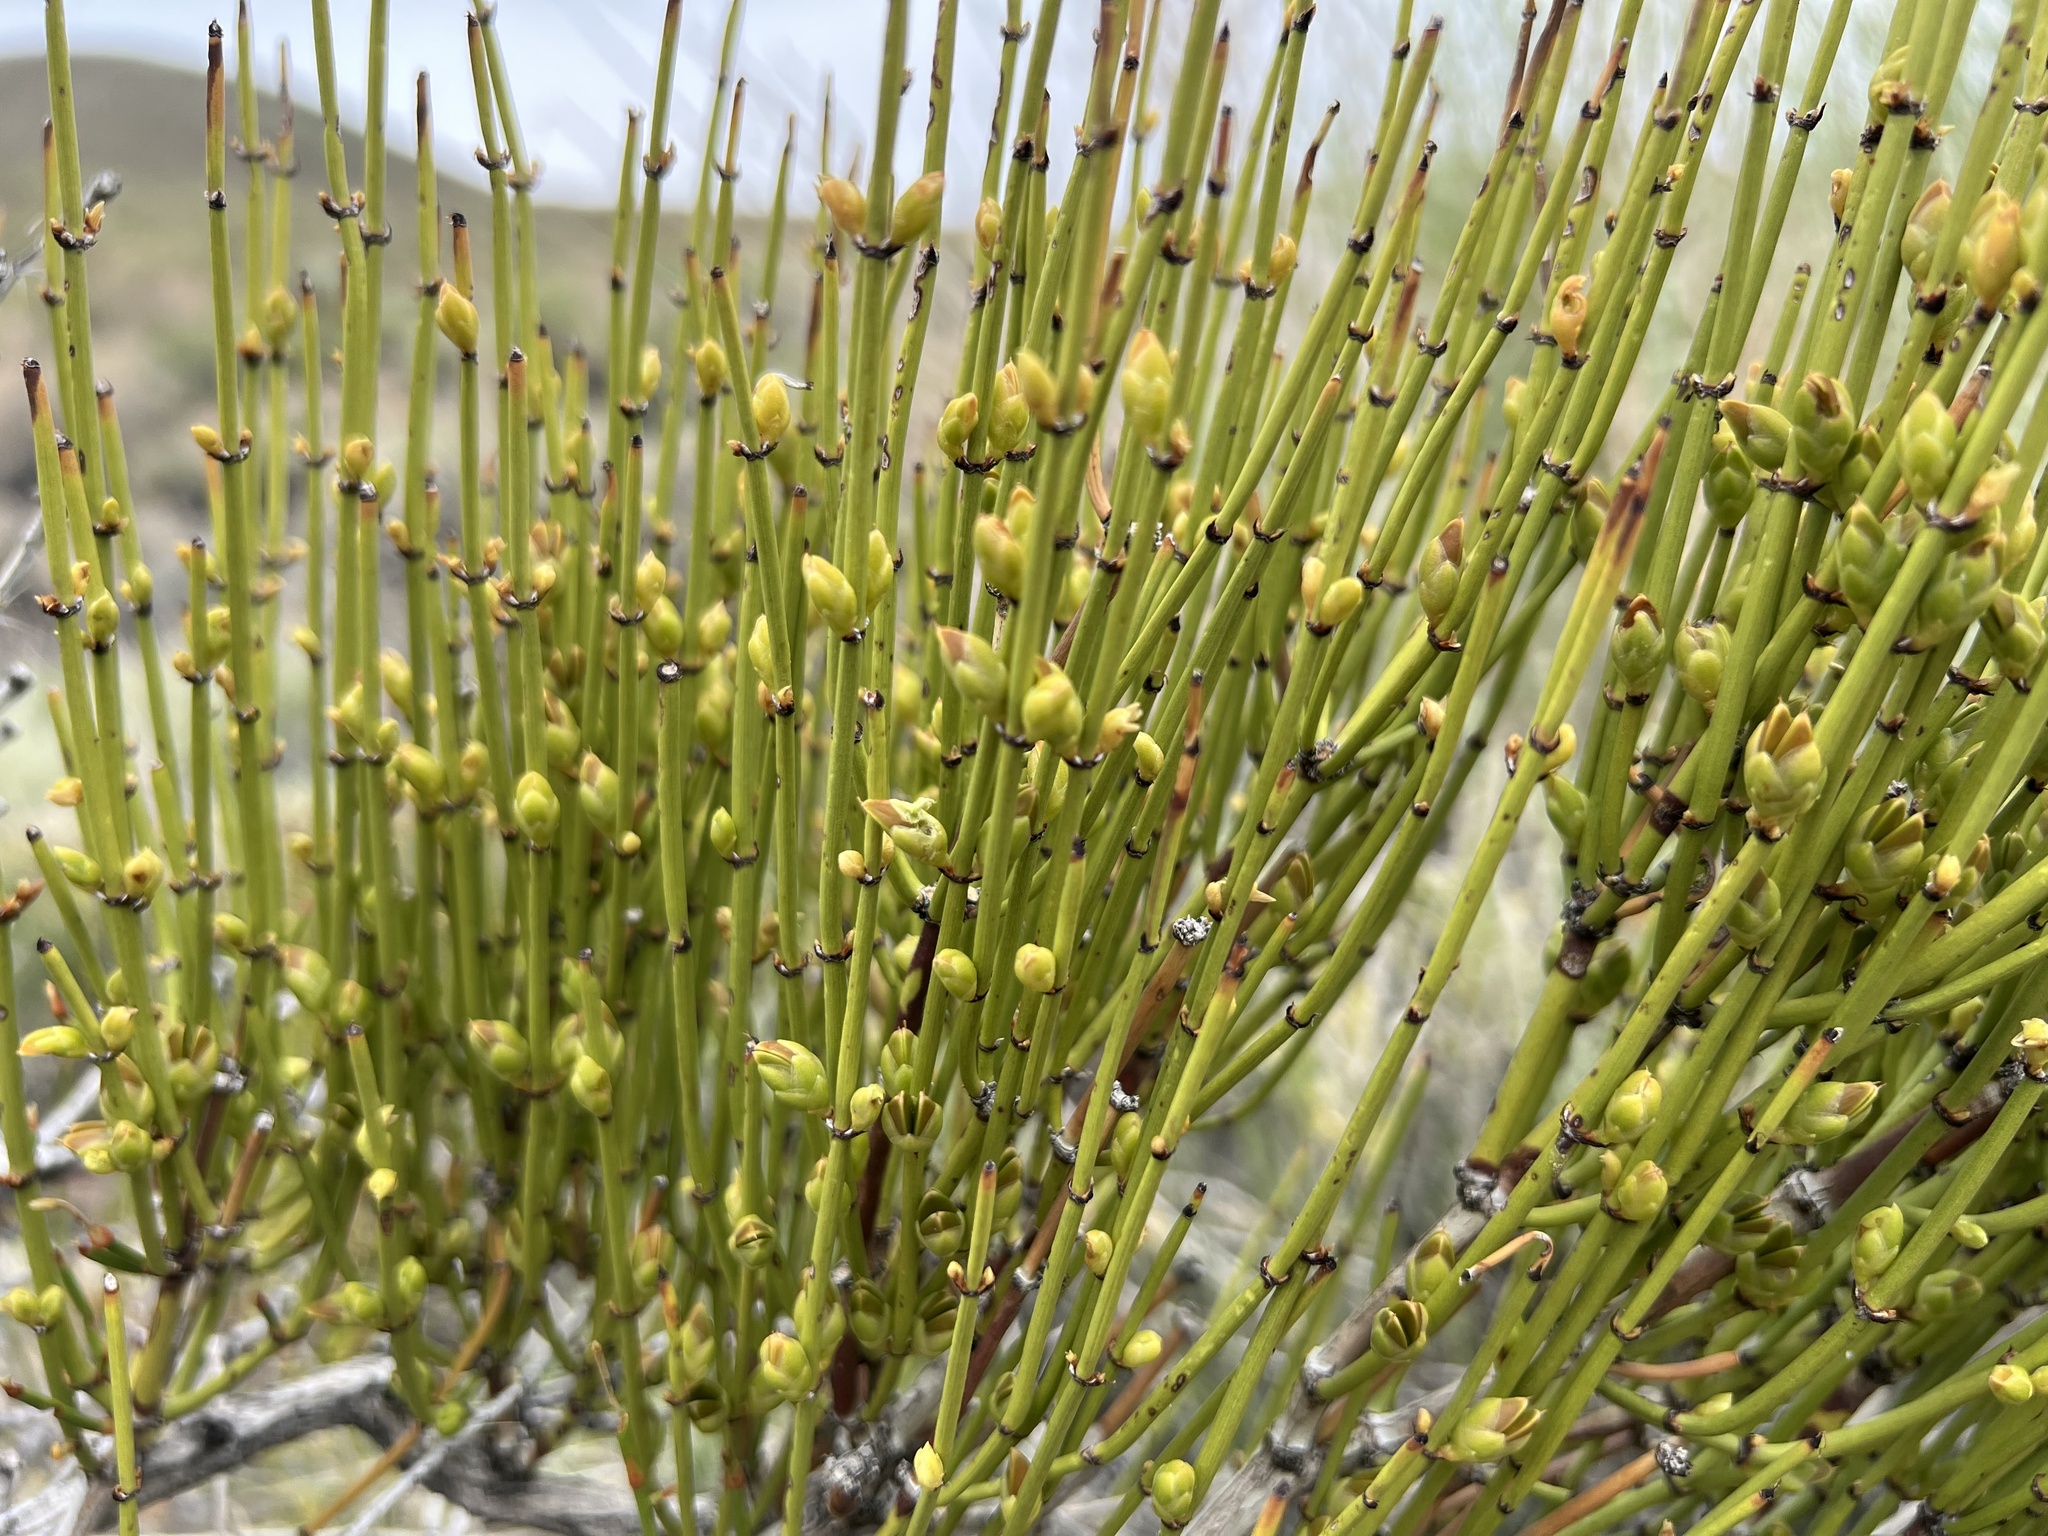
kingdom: Plantae
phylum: Tracheophyta
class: Gnetopsida
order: Ephedrales
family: Ephedraceae
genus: Ephedra
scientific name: Ephedra viridis
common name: Green ephedra
